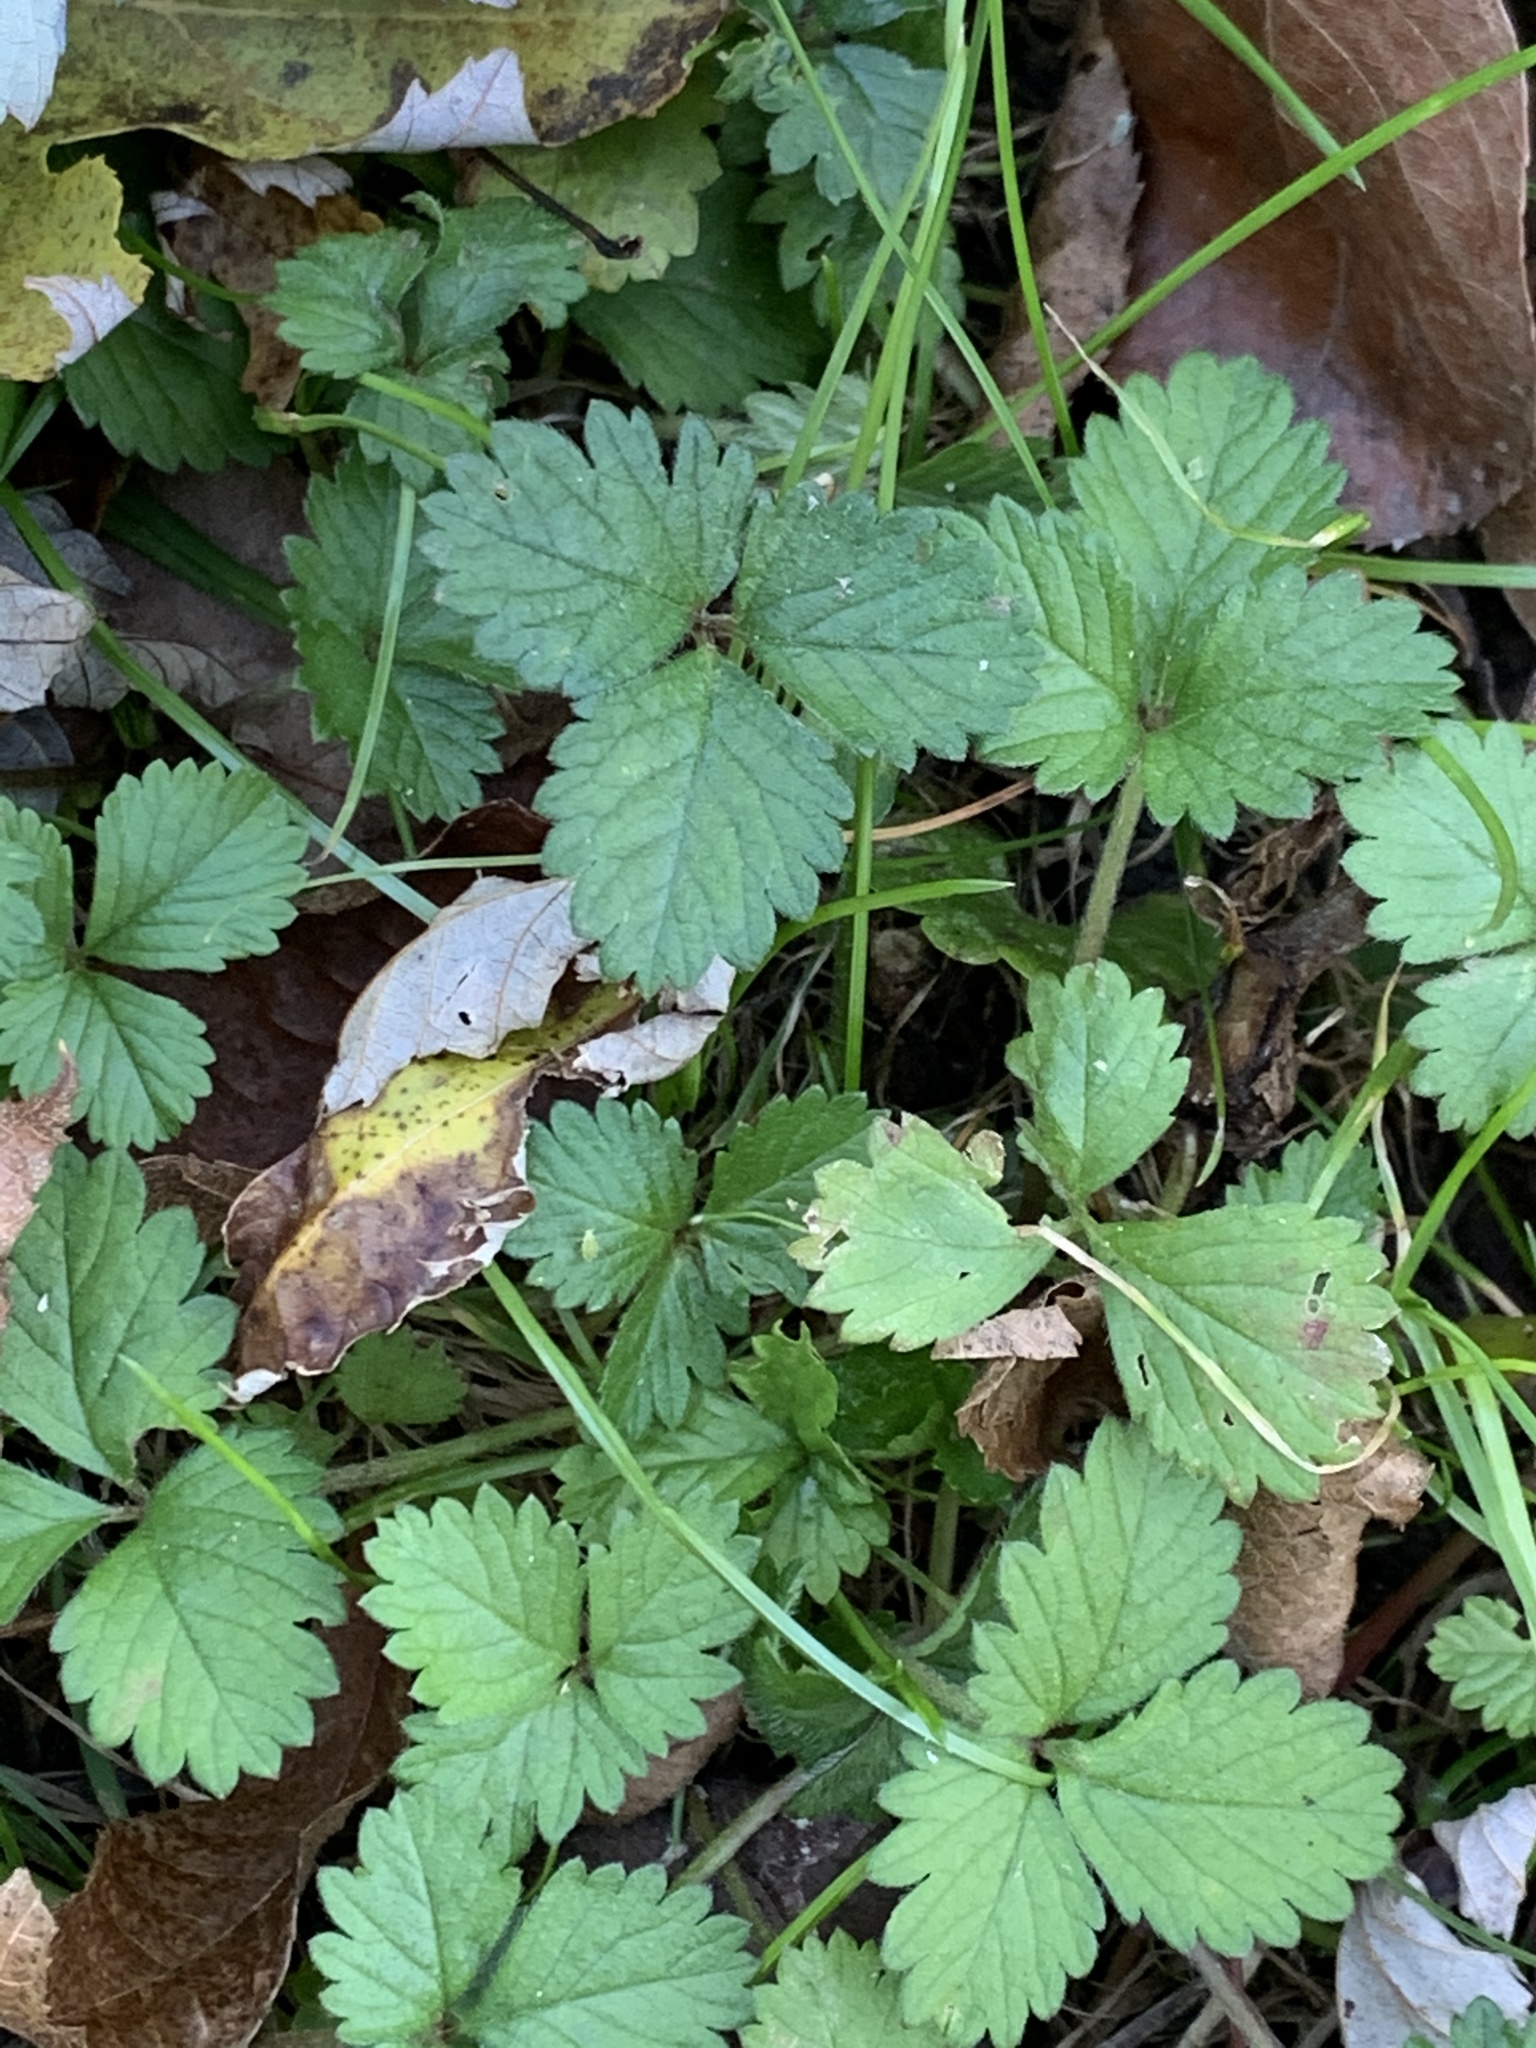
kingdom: Plantae
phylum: Tracheophyta
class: Magnoliopsida
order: Rosales
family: Rosaceae
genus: Potentilla
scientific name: Potentilla indica
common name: Yellow-flowered strawberry
